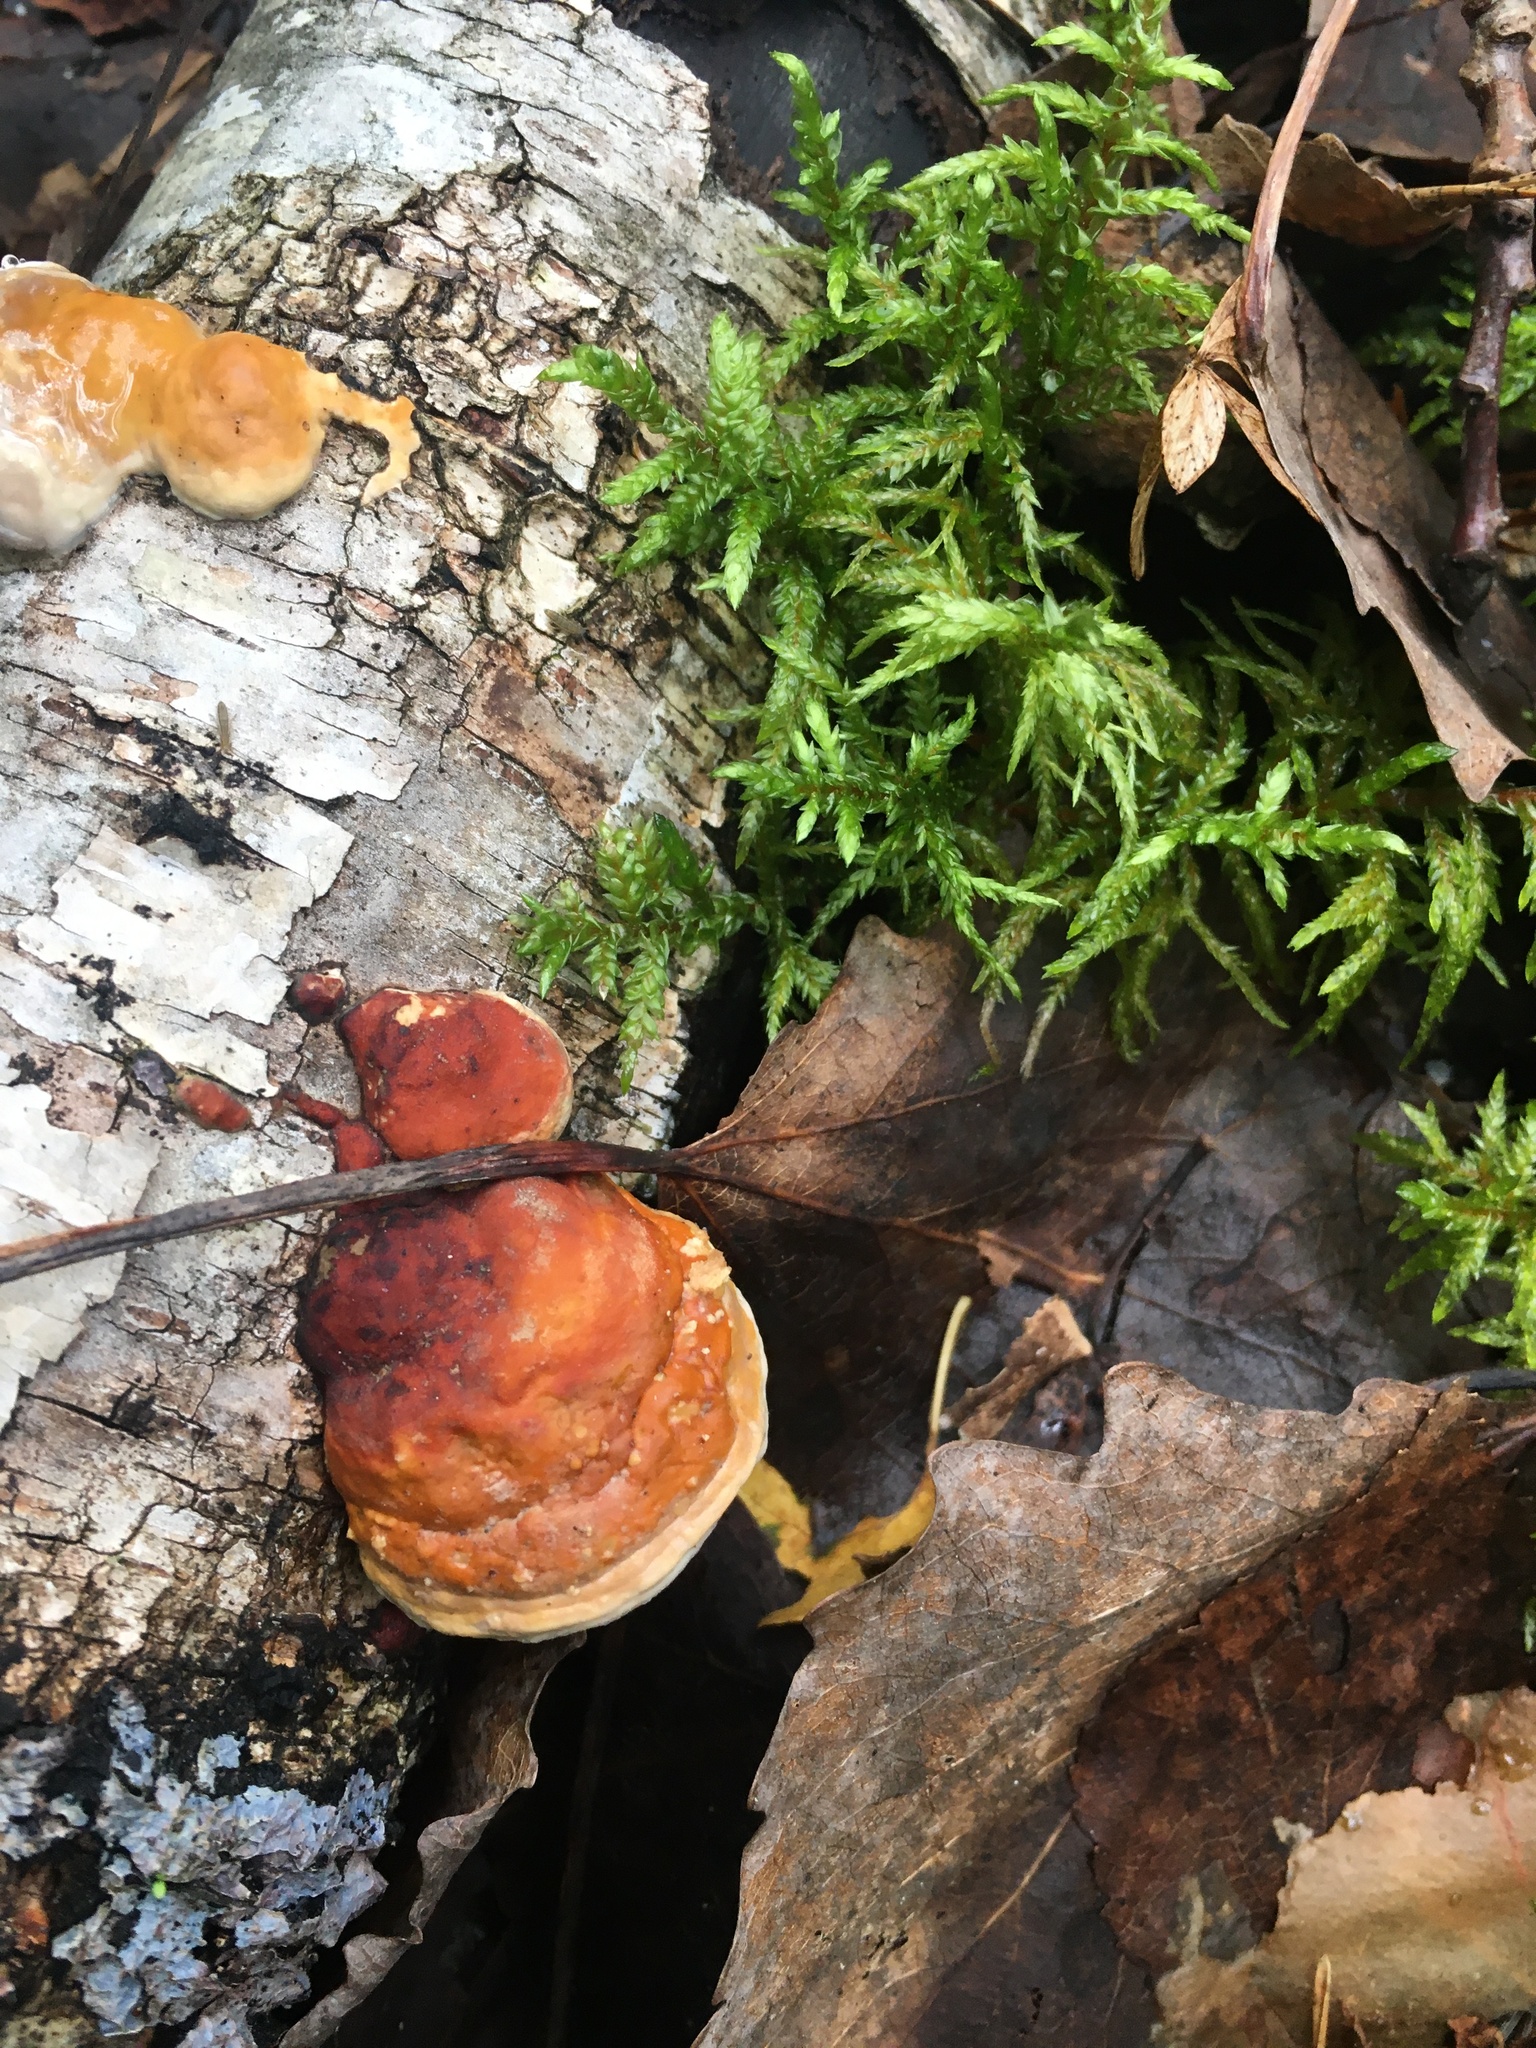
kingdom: Fungi
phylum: Basidiomycota
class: Agaricomycetes
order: Polyporales
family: Fomitopsidaceae
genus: Fomitopsis
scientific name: Fomitopsis pinicola
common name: Red-belted bracket
